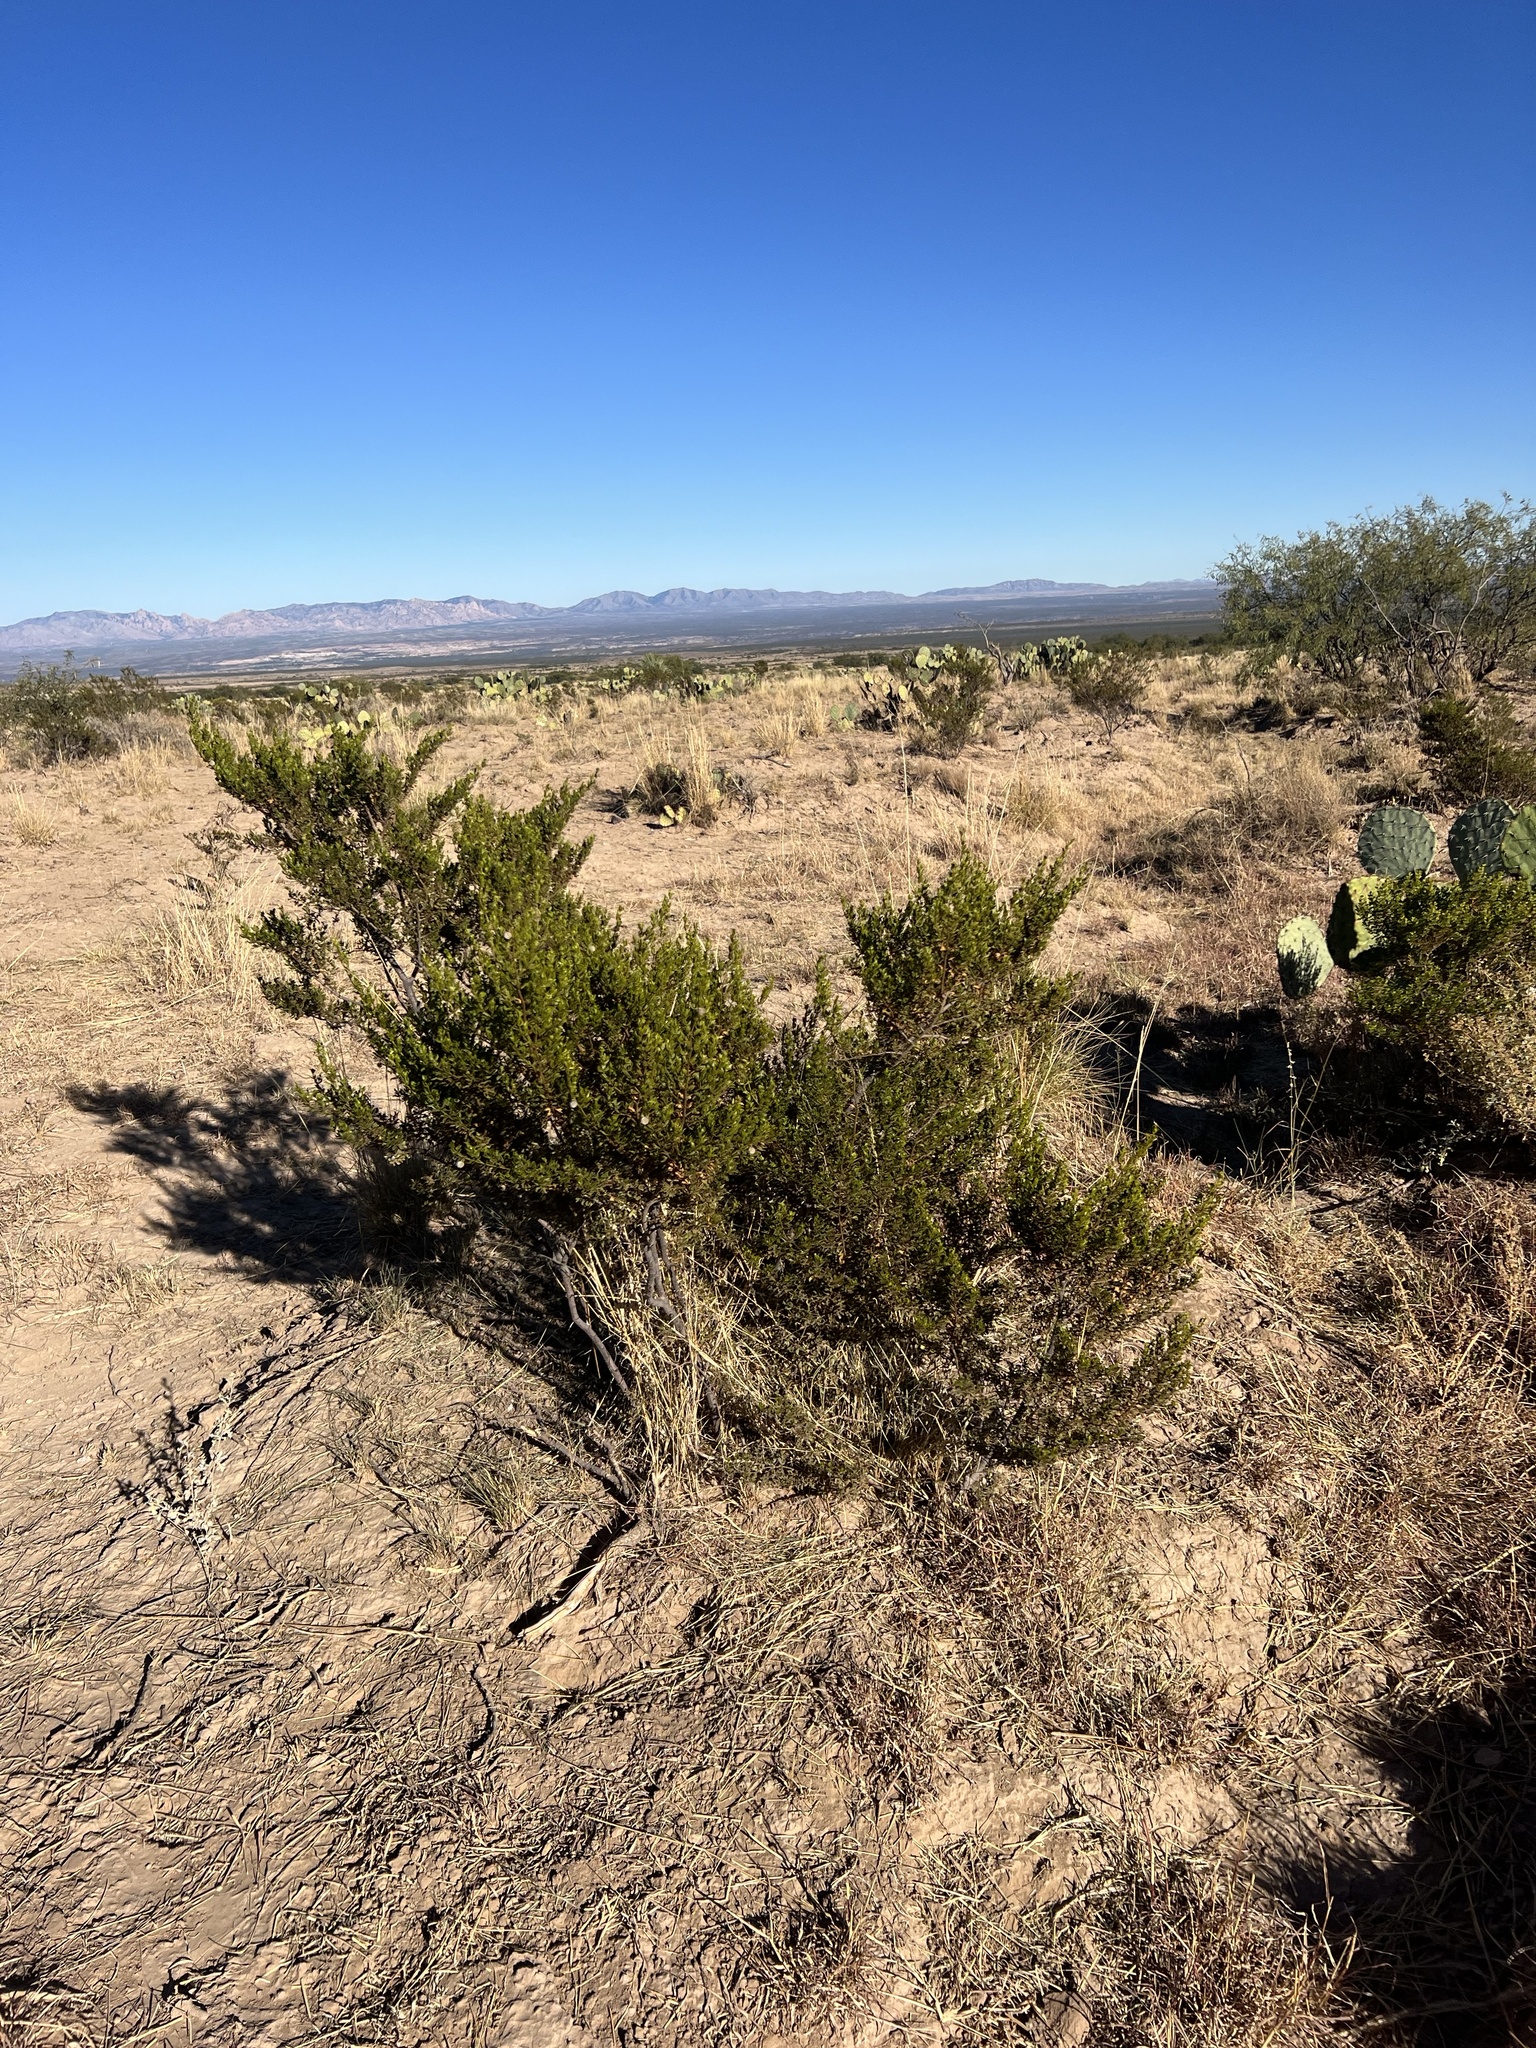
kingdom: Plantae
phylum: Tracheophyta
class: Magnoliopsida
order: Zygophyllales
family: Zygophyllaceae
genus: Larrea
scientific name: Larrea tridentata
